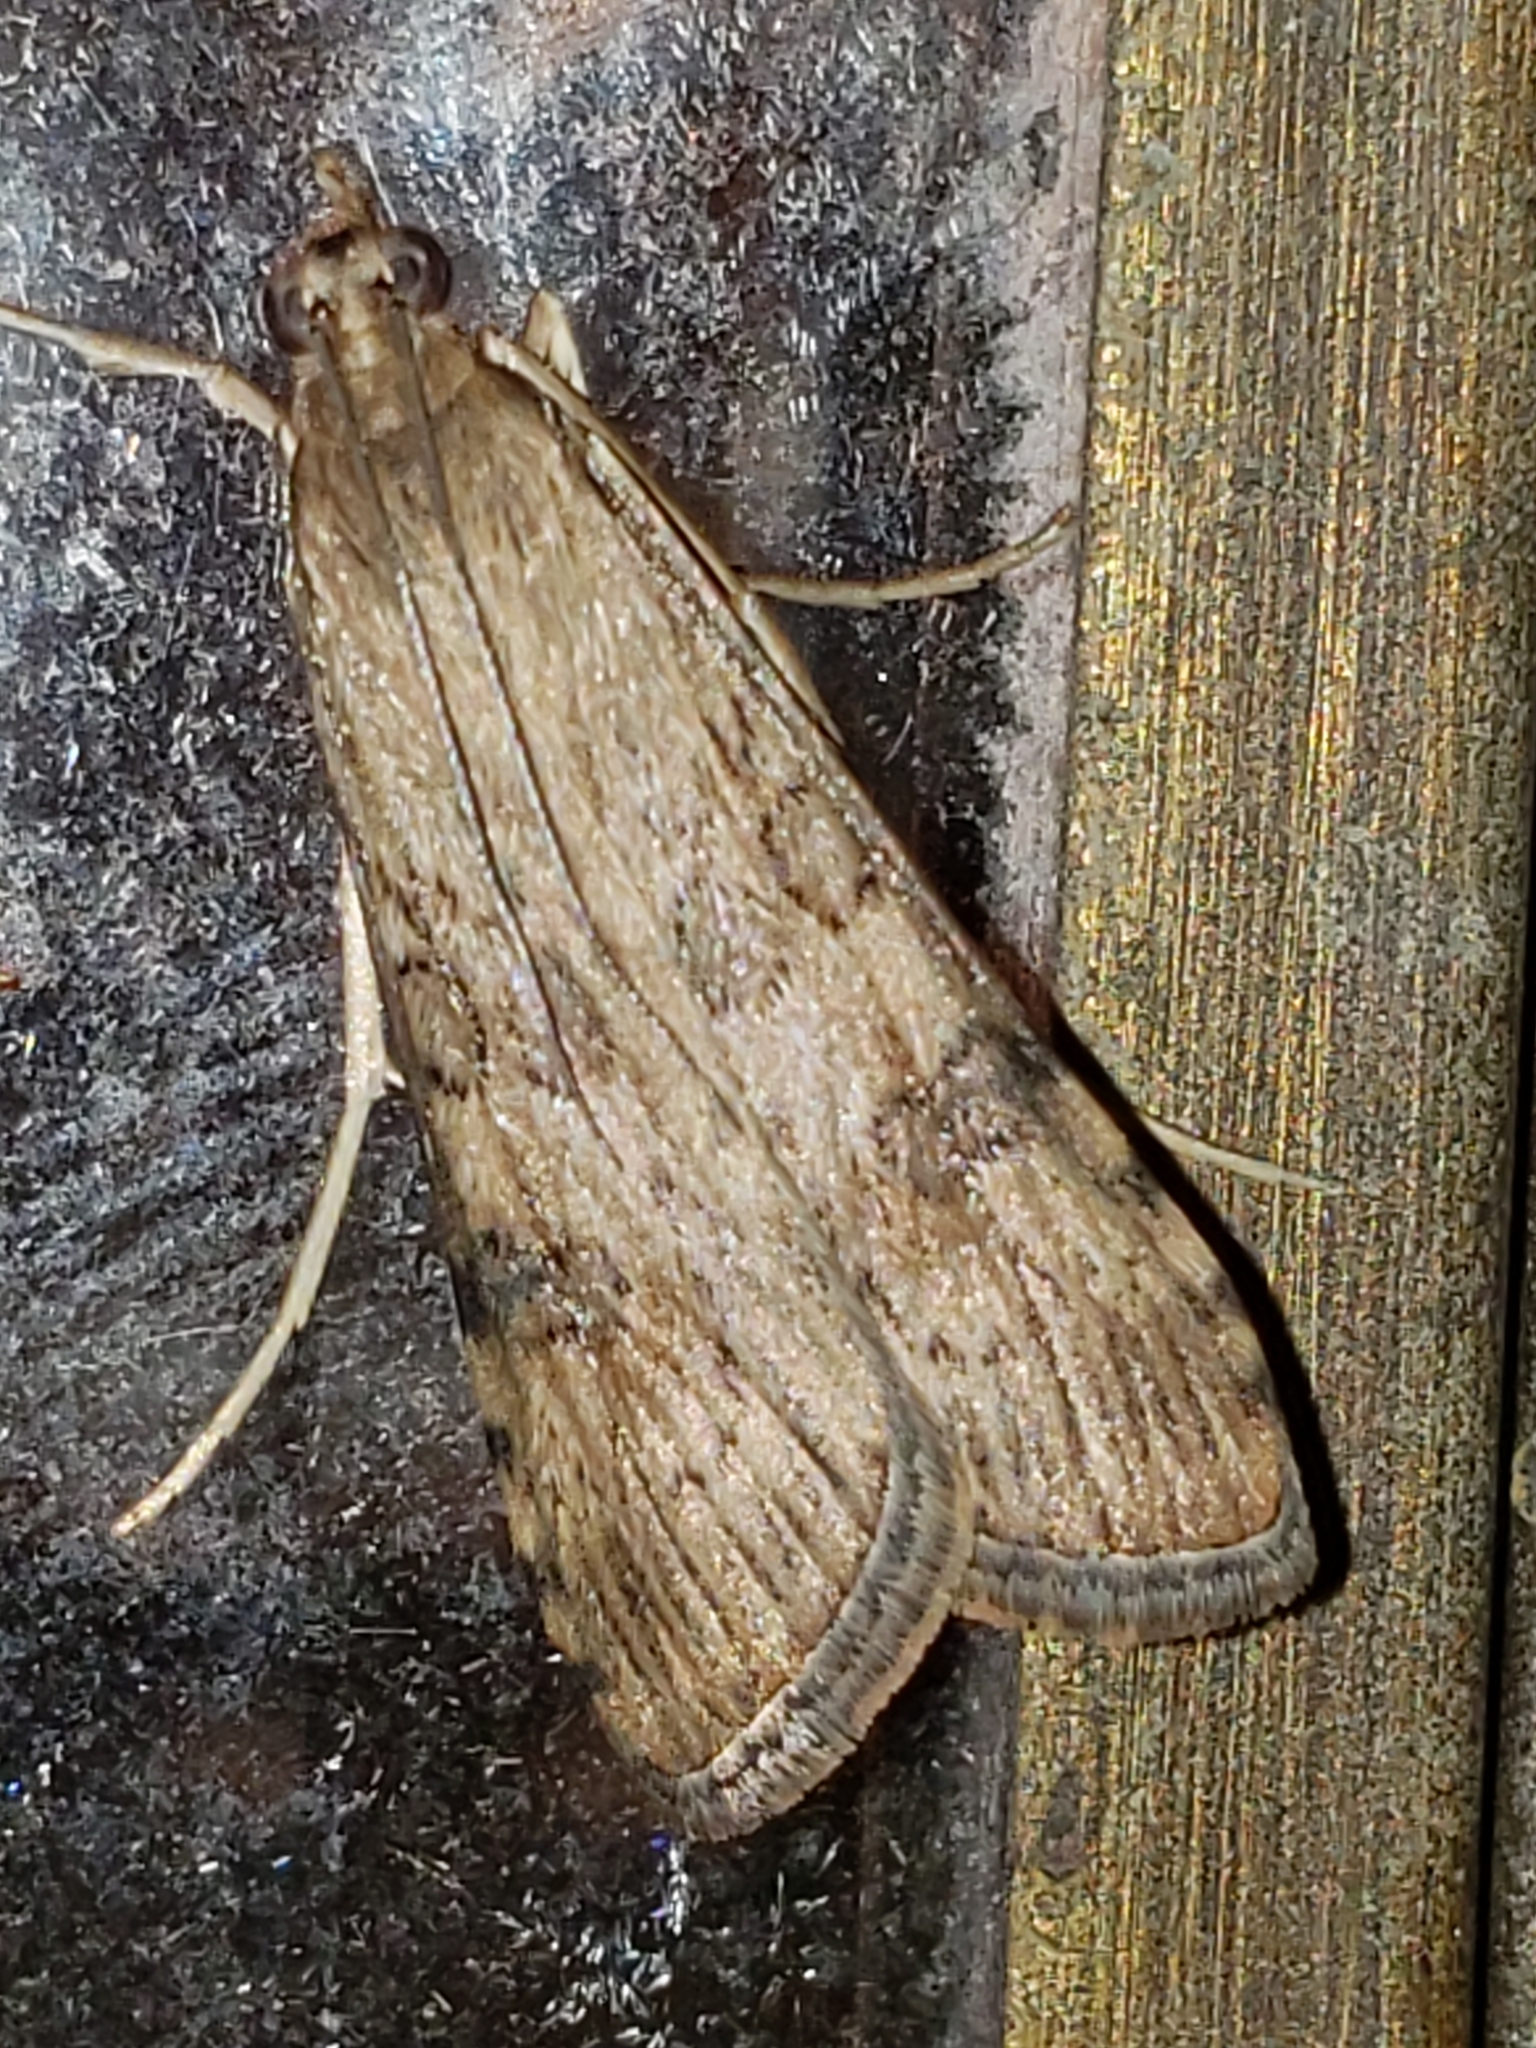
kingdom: Animalia
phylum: Arthropoda
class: Insecta
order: Lepidoptera
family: Crambidae
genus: Nomophila
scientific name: Nomophila nearctica
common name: American rush veneer
